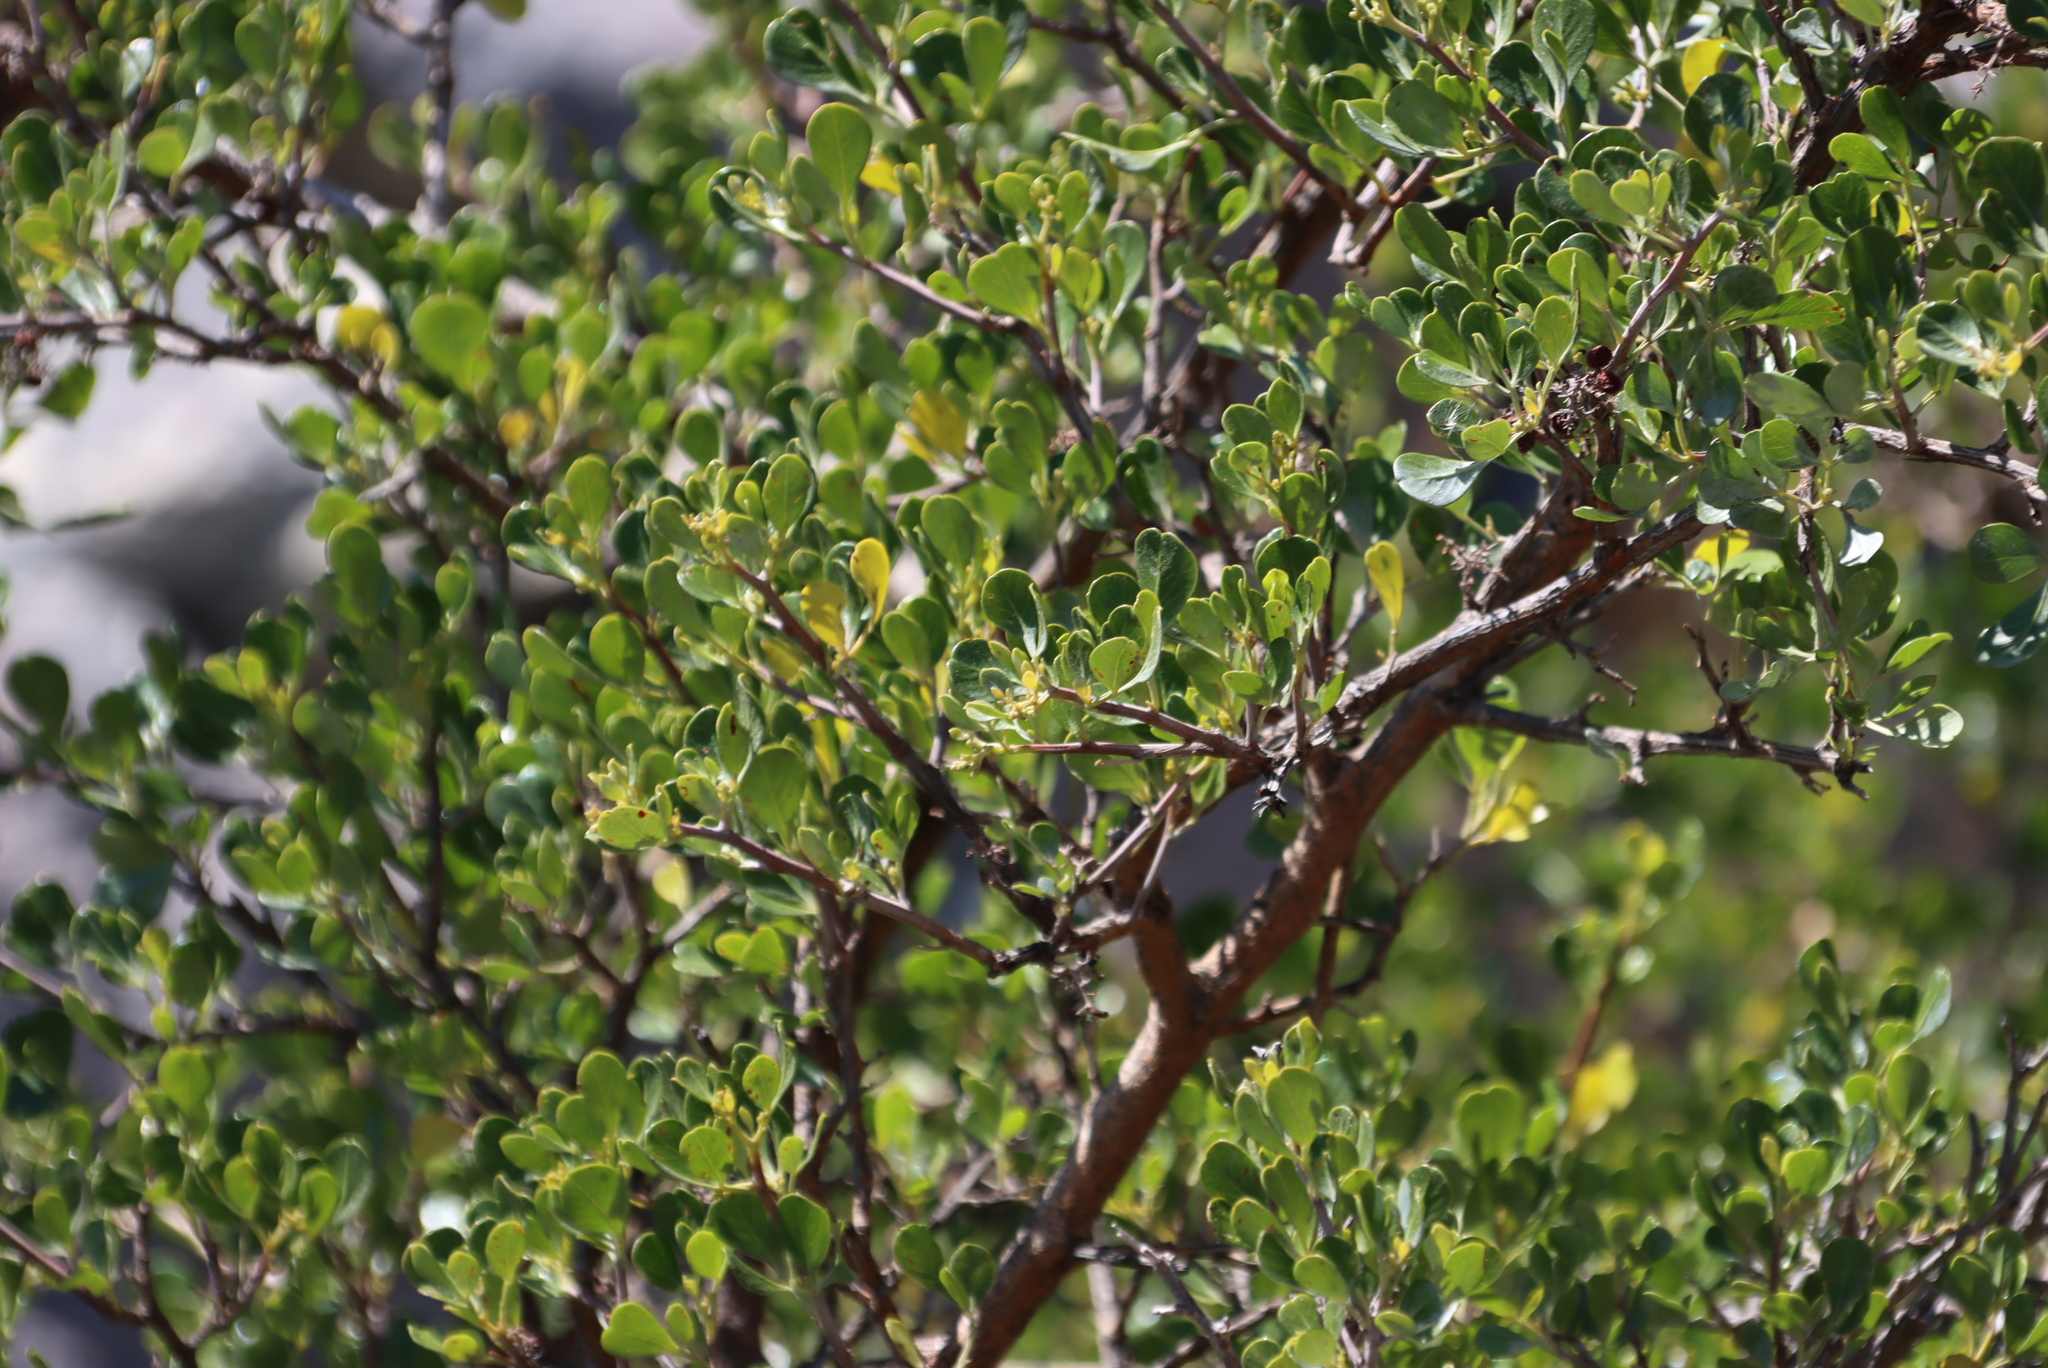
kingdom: Plantae
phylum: Tracheophyta
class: Magnoliopsida
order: Sapindales
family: Anacardiaceae
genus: Searsia
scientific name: Searsia glauca
